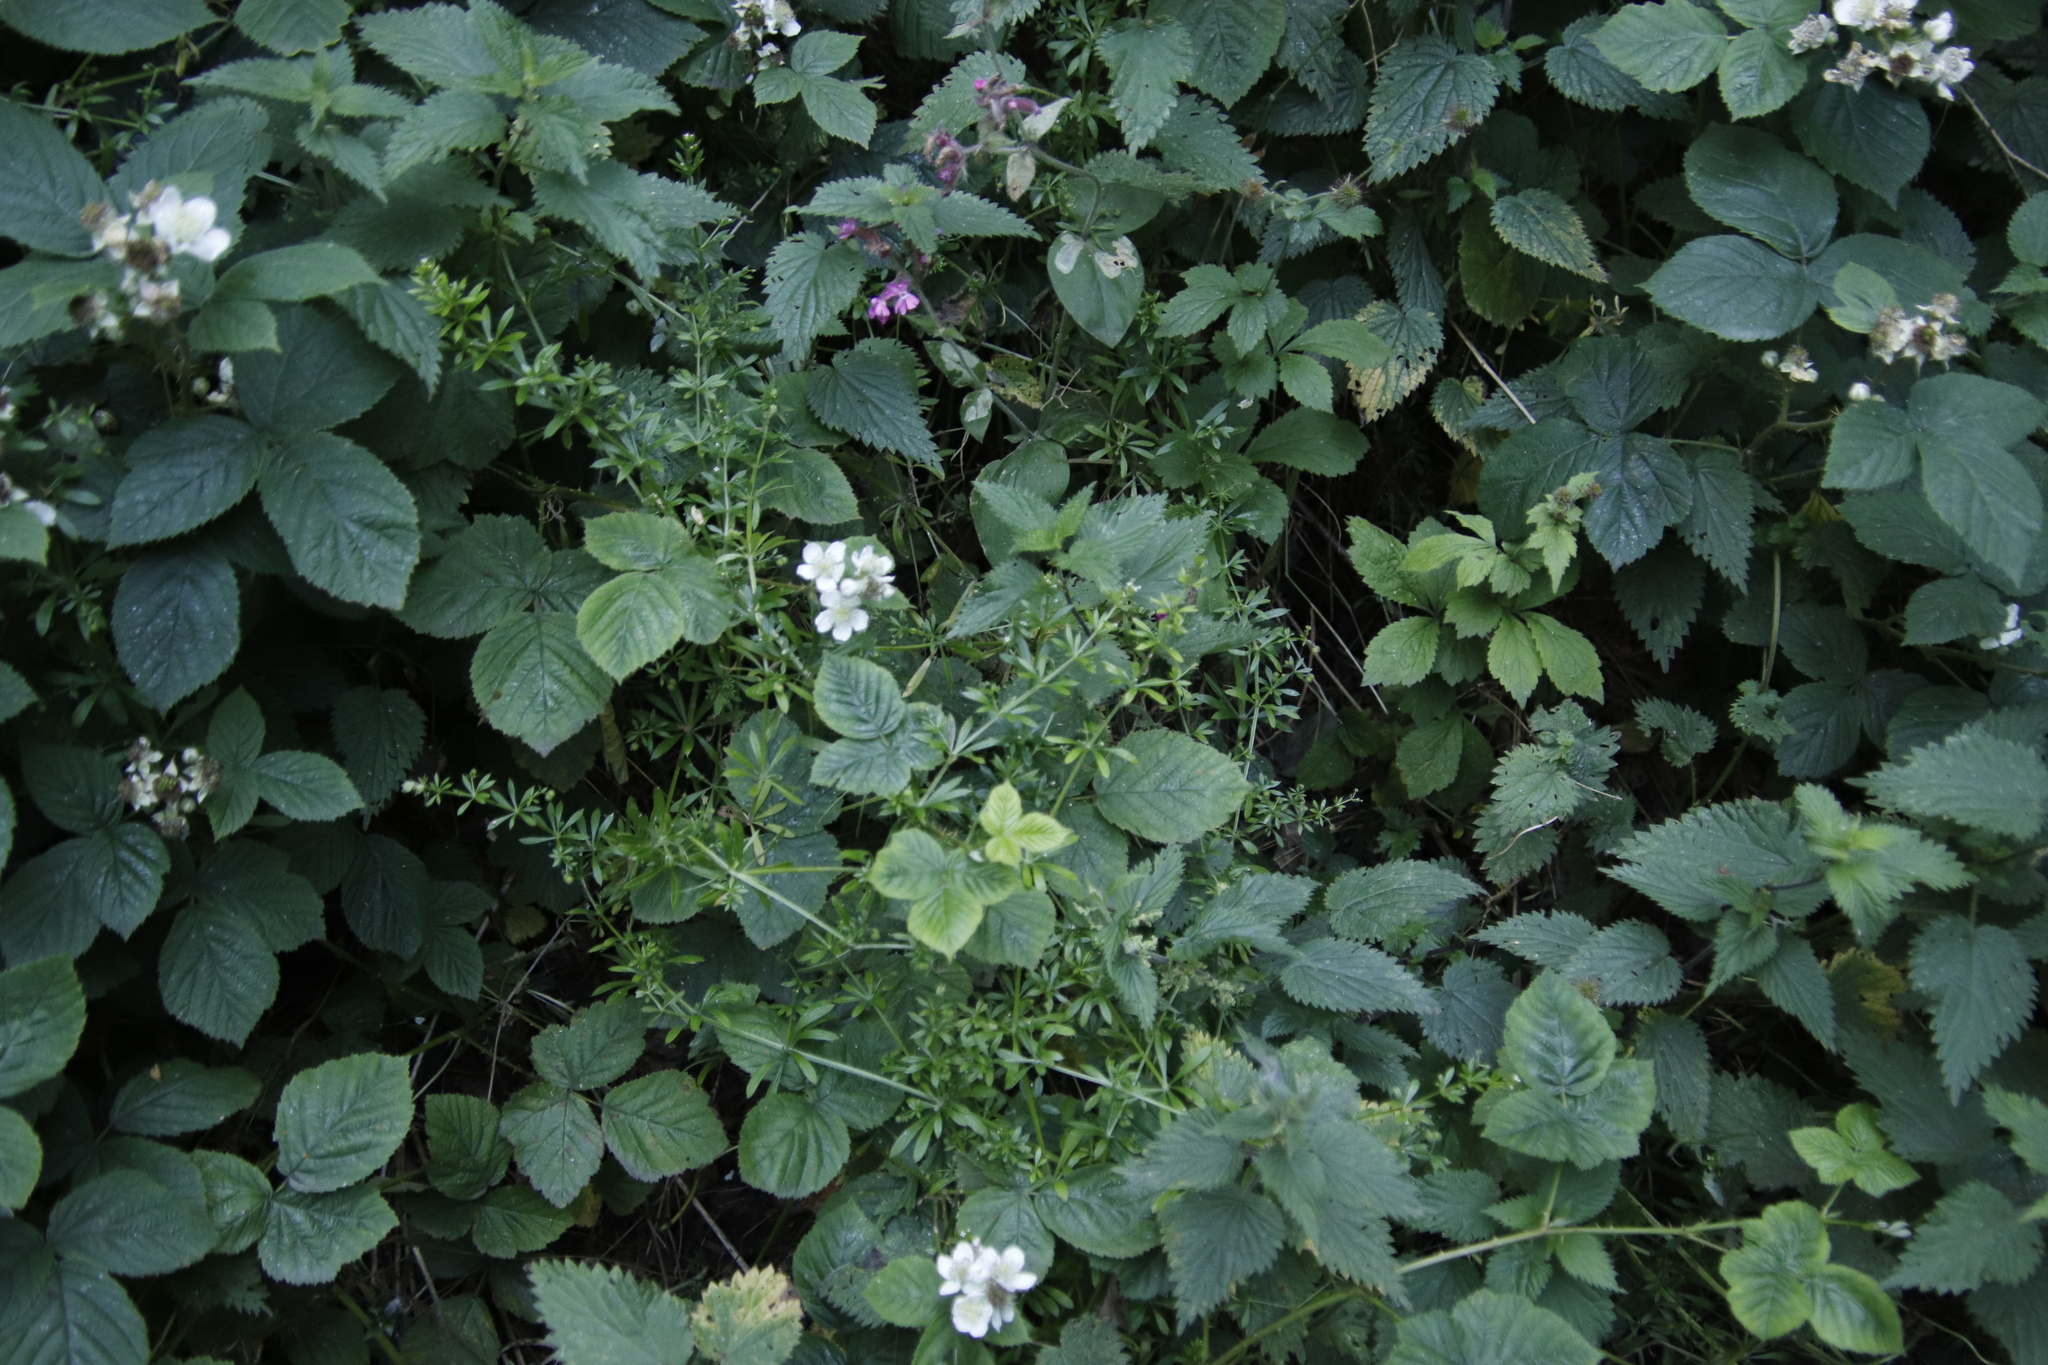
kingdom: Plantae
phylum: Tracheophyta
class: Magnoliopsida
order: Gentianales
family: Rubiaceae
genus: Galium
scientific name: Galium aparine
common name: Cleavers
